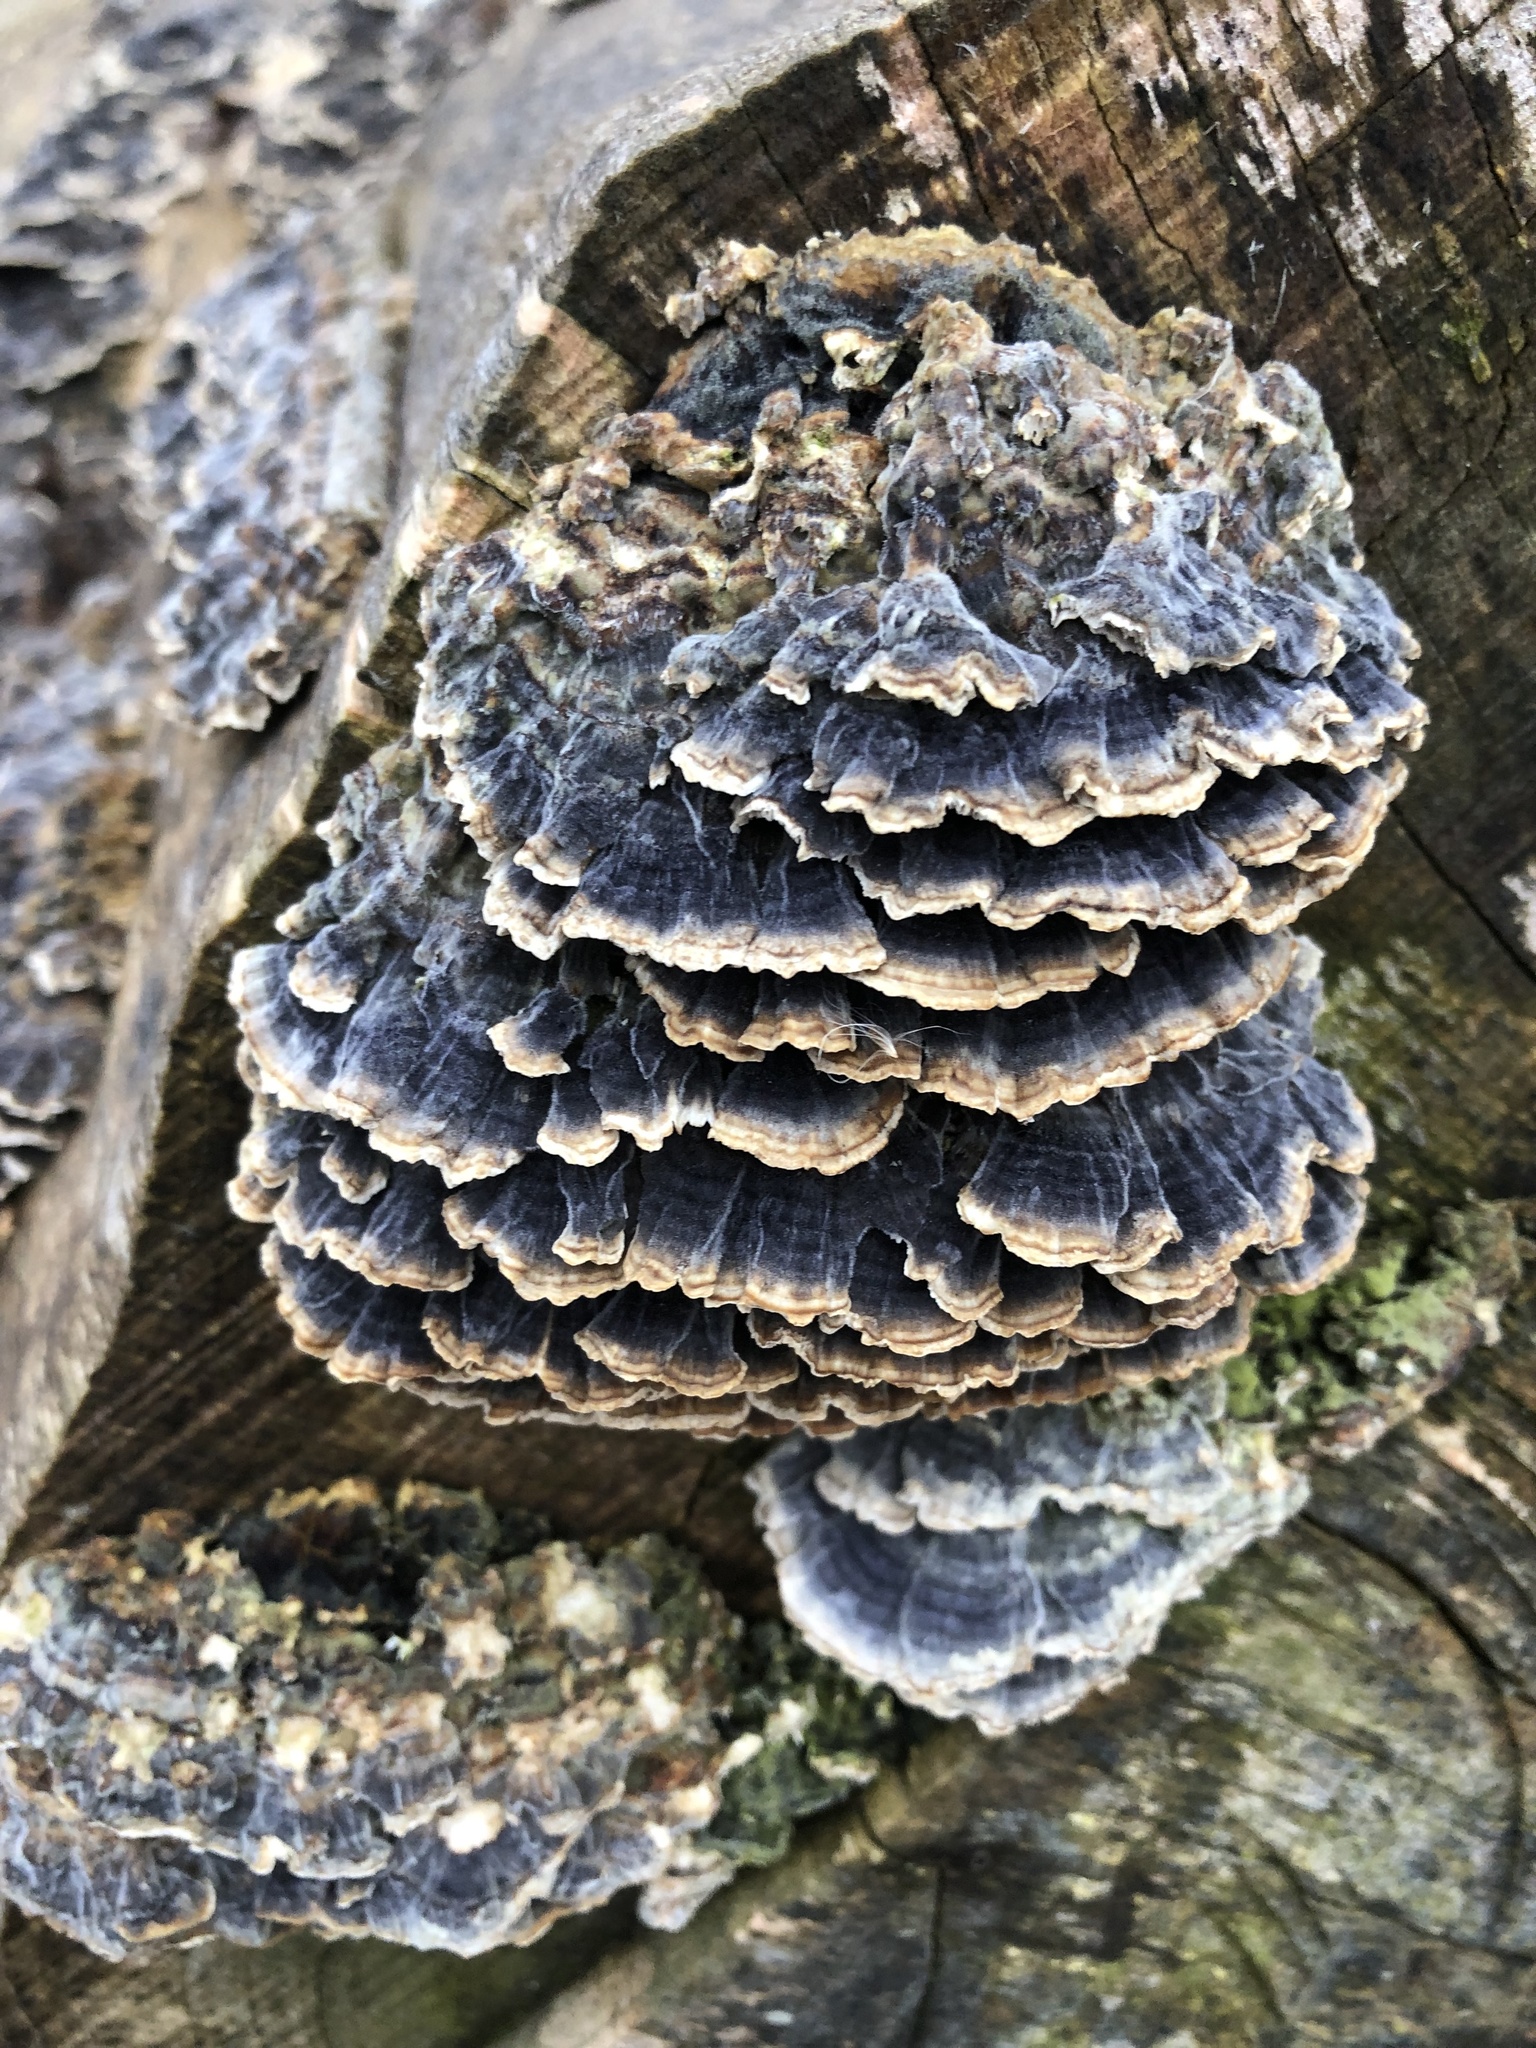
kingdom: Fungi
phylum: Basidiomycota
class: Agaricomycetes
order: Polyporales
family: Polyporaceae
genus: Trametes
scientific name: Trametes versicolor
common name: Turkeytail
